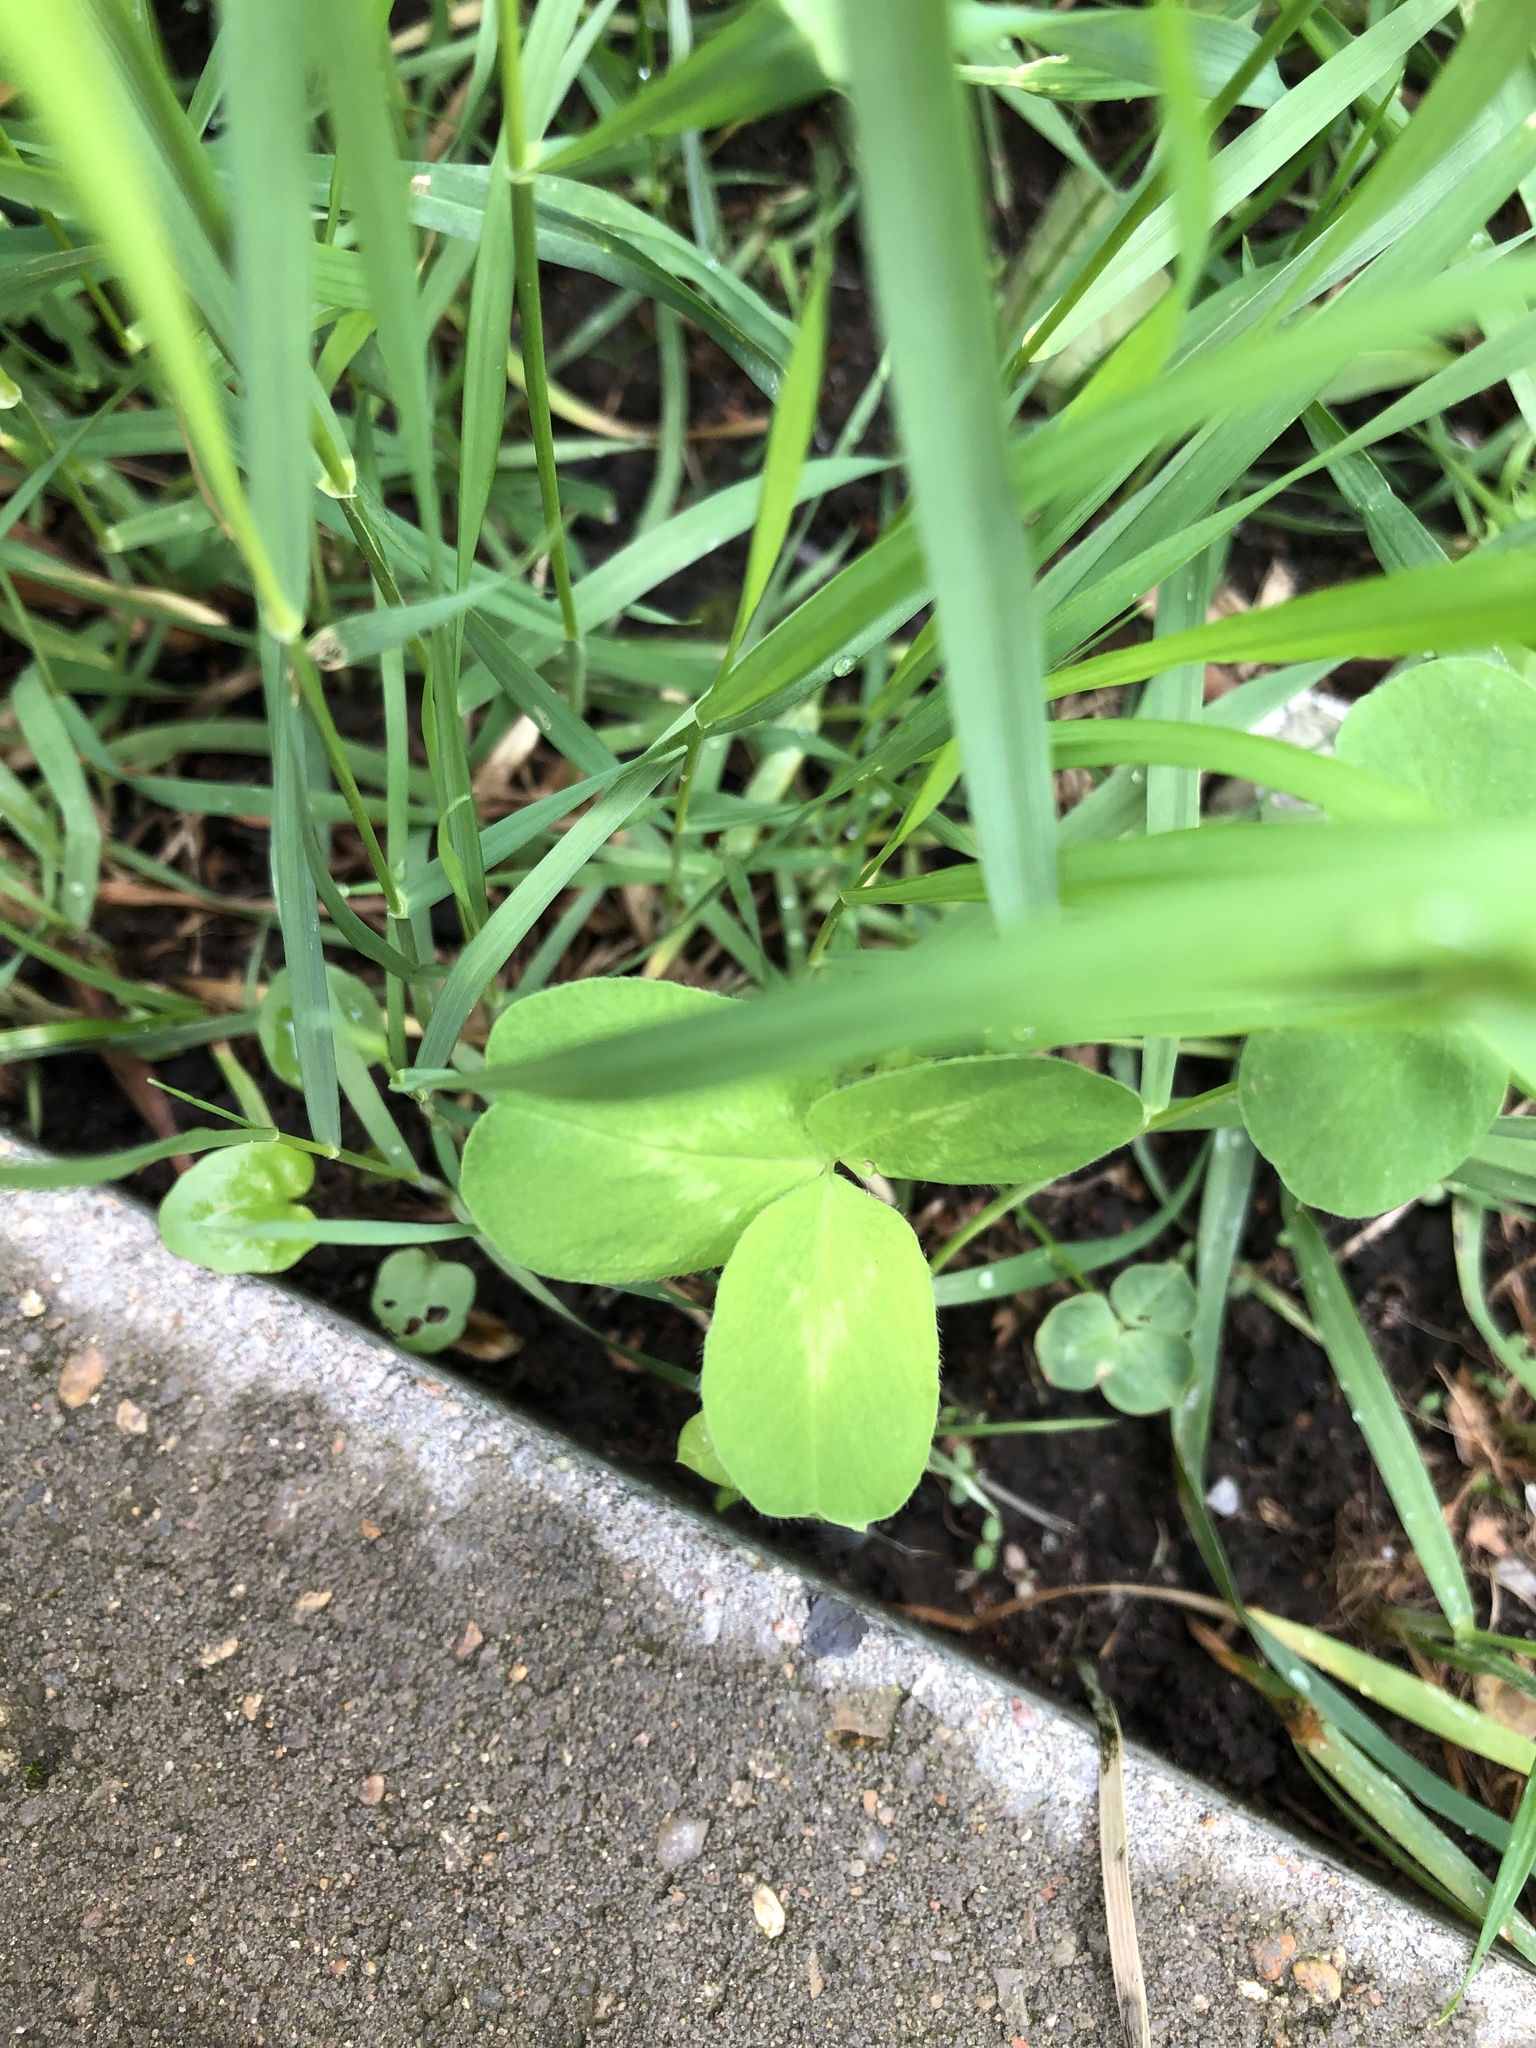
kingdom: Plantae
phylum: Tracheophyta
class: Magnoliopsida
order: Fabales
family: Fabaceae
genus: Trifolium
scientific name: Trifolium pratense
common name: Red clover
